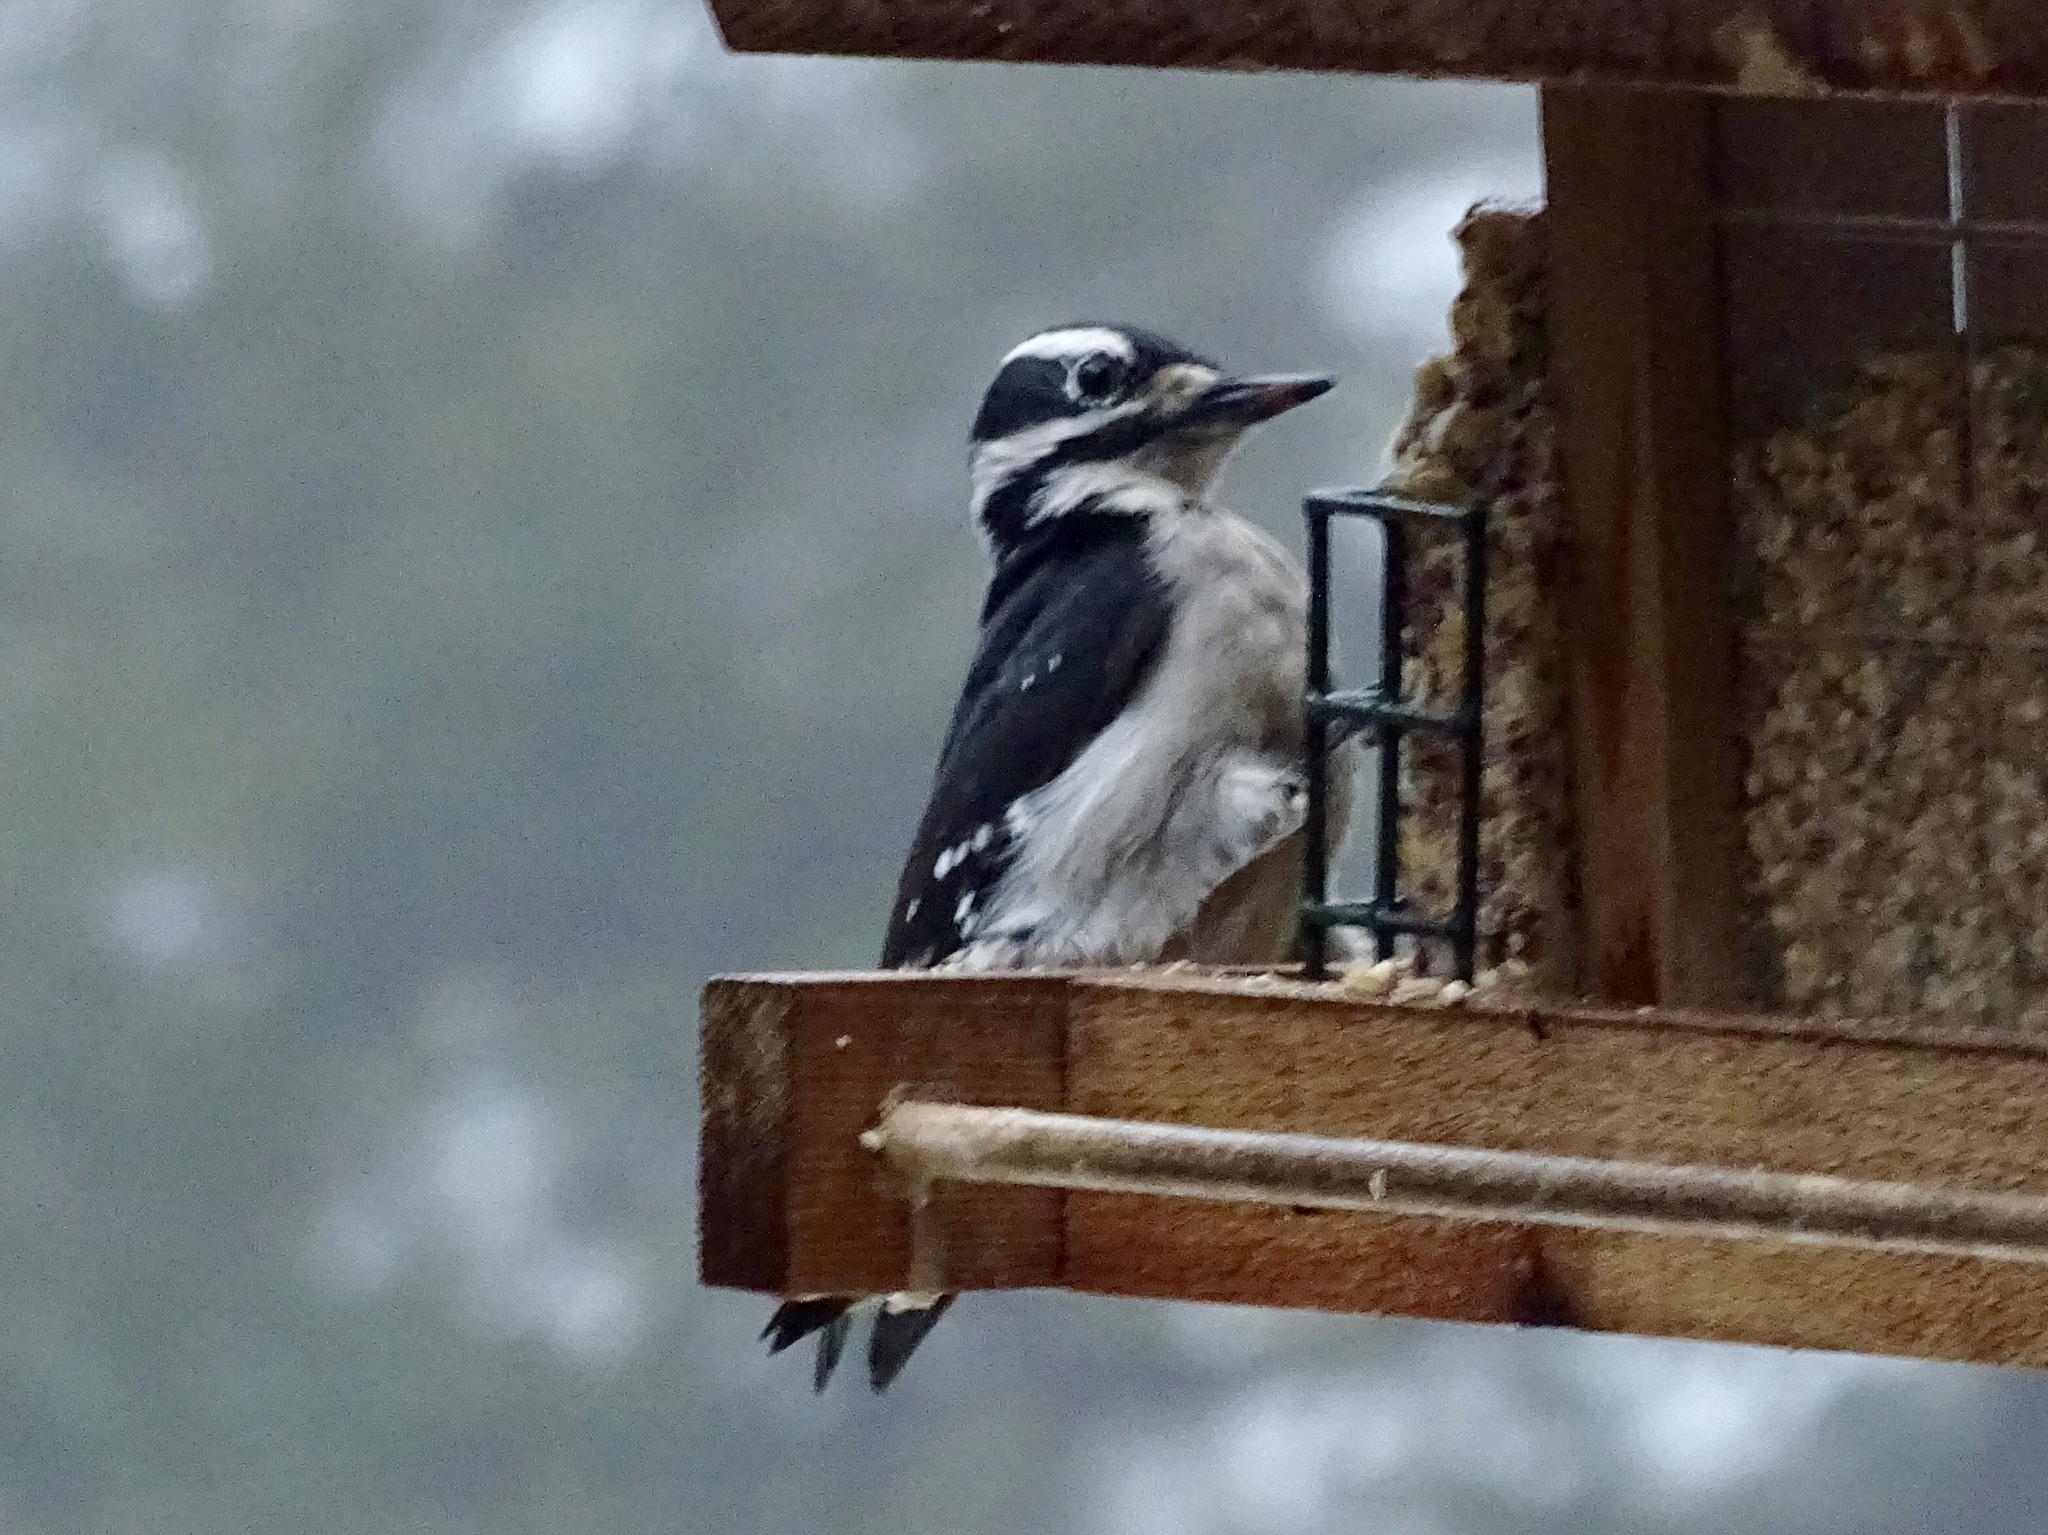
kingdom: Animalia
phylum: Chordata
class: Aves
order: Piciformes
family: Picidae
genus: Leuconotopicus
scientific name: Leuconotopicus villosus
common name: Hairy woodpecker
